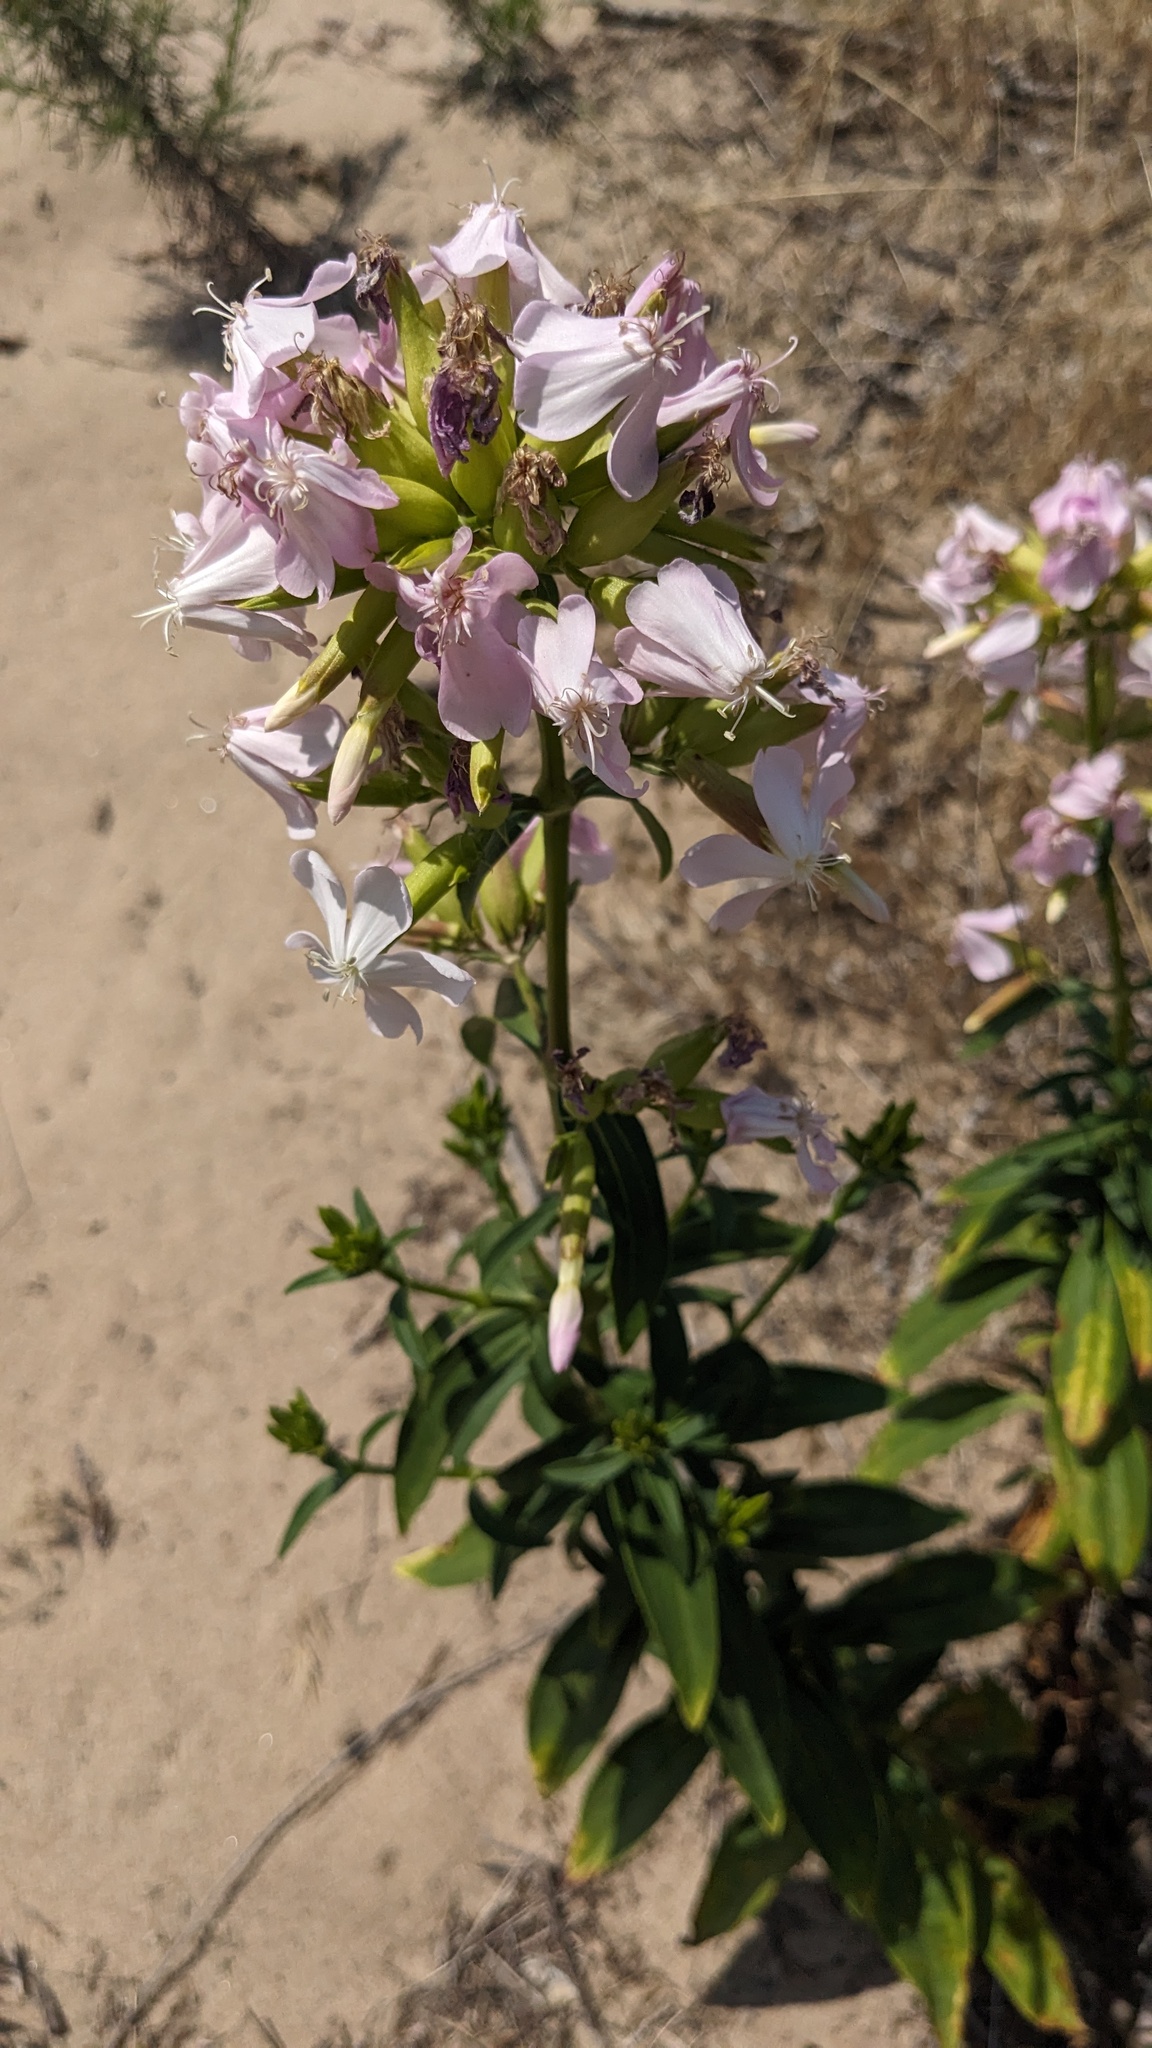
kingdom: Plantae
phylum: Tracheophyta
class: Magnoliopsida
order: Caryophyllales
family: Caryophyllaceae
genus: Saponaria
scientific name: Saponaria officinalis
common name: Soapwort
